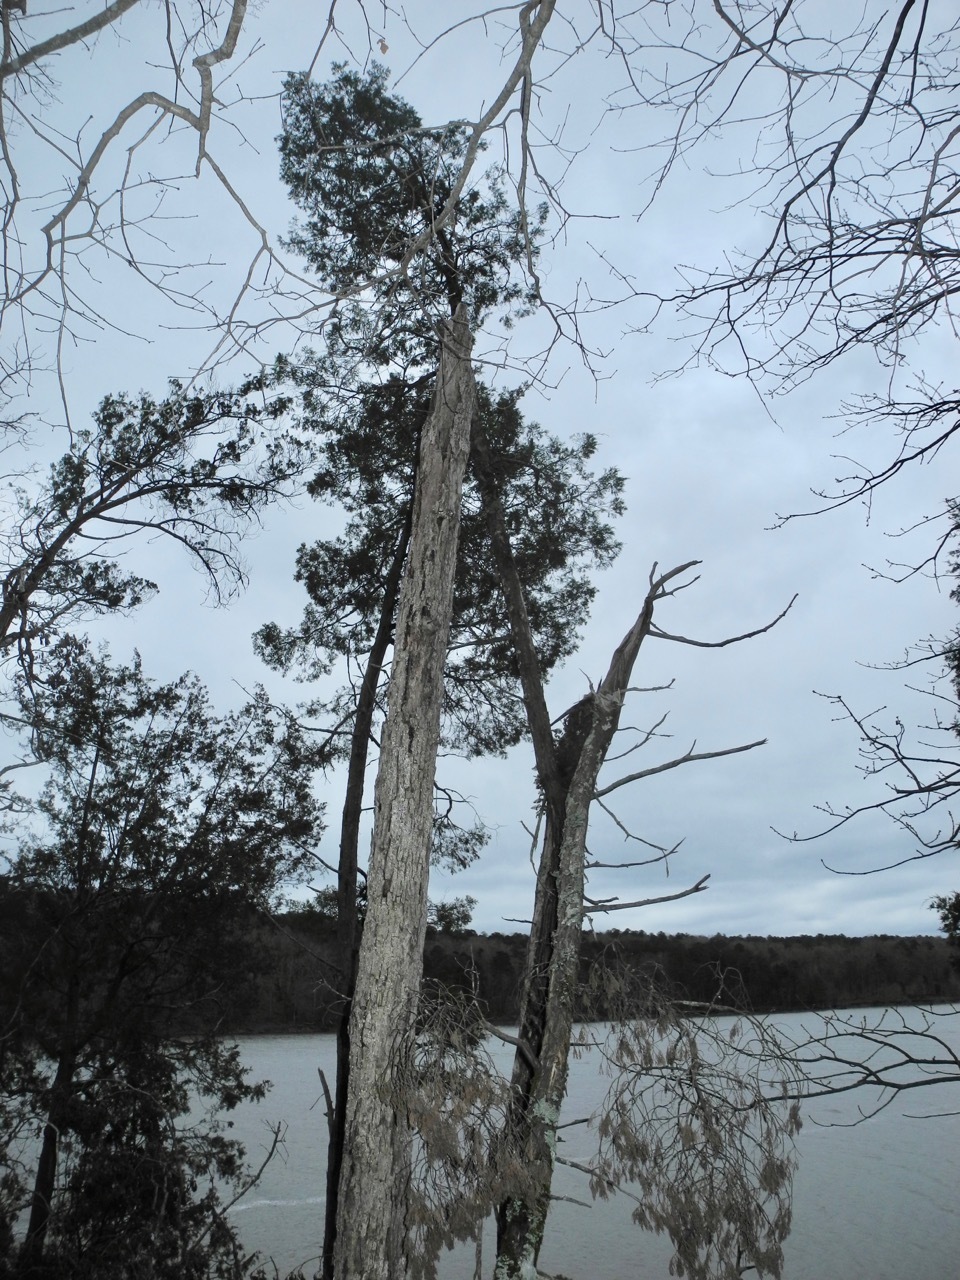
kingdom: Plantae
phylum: Tracheophyta
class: Polypodiopsida
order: Polypodiales
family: Polypodiaceae
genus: Pleopeltis
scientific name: Pleopeltis michauxiana
